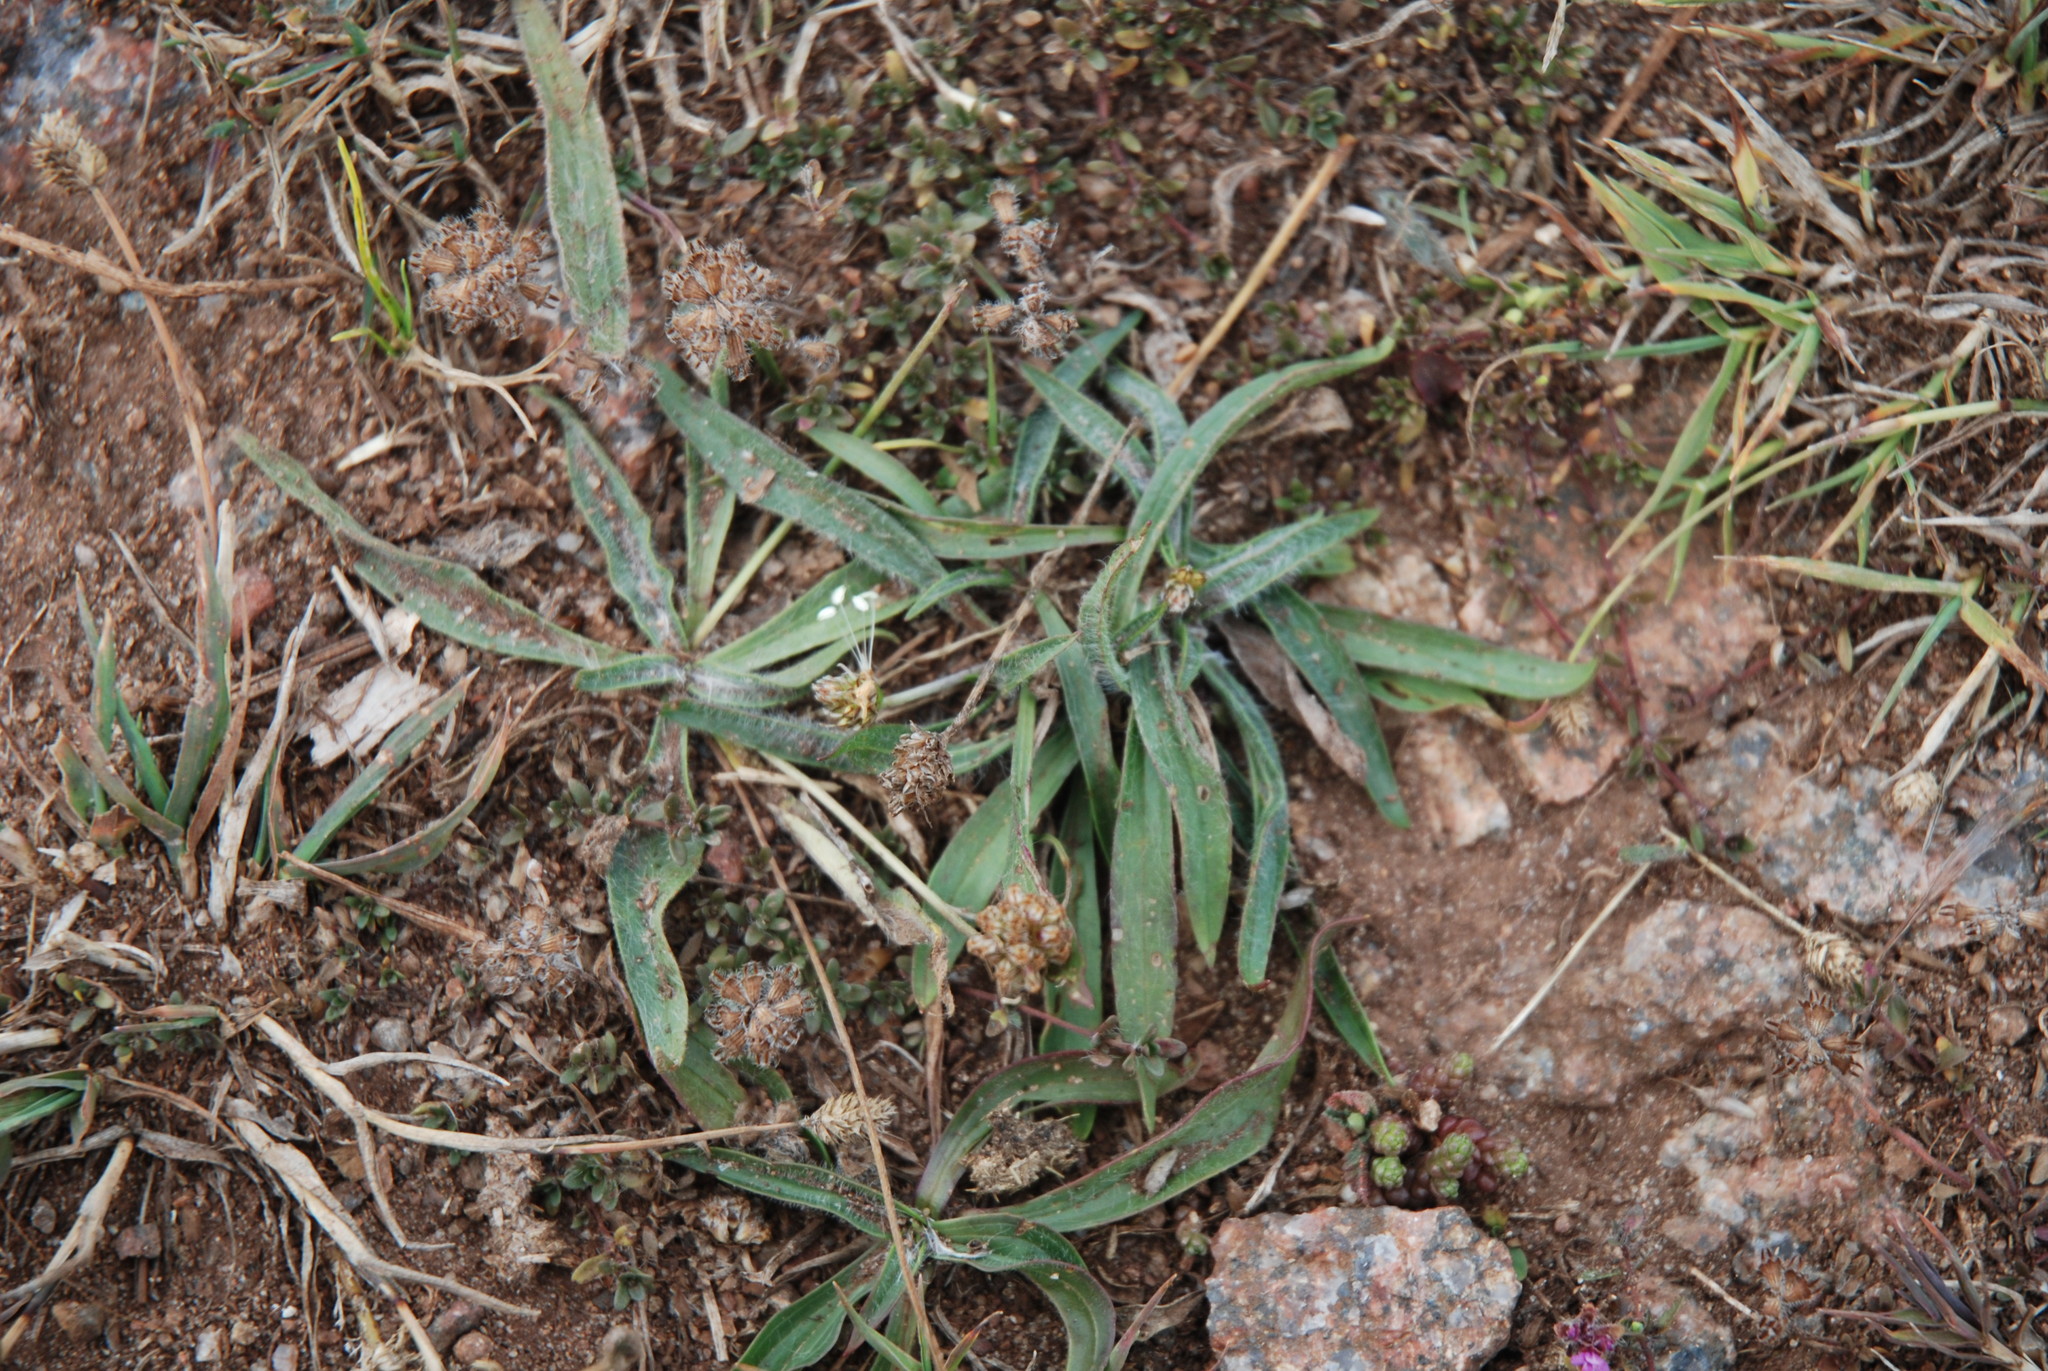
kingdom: Plantae
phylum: Tracheophyta
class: Magnoliopsida
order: Lamiales
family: Plantaginaceae
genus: Plantago
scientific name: Plantago lanceolata
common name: Ribwort plantain
